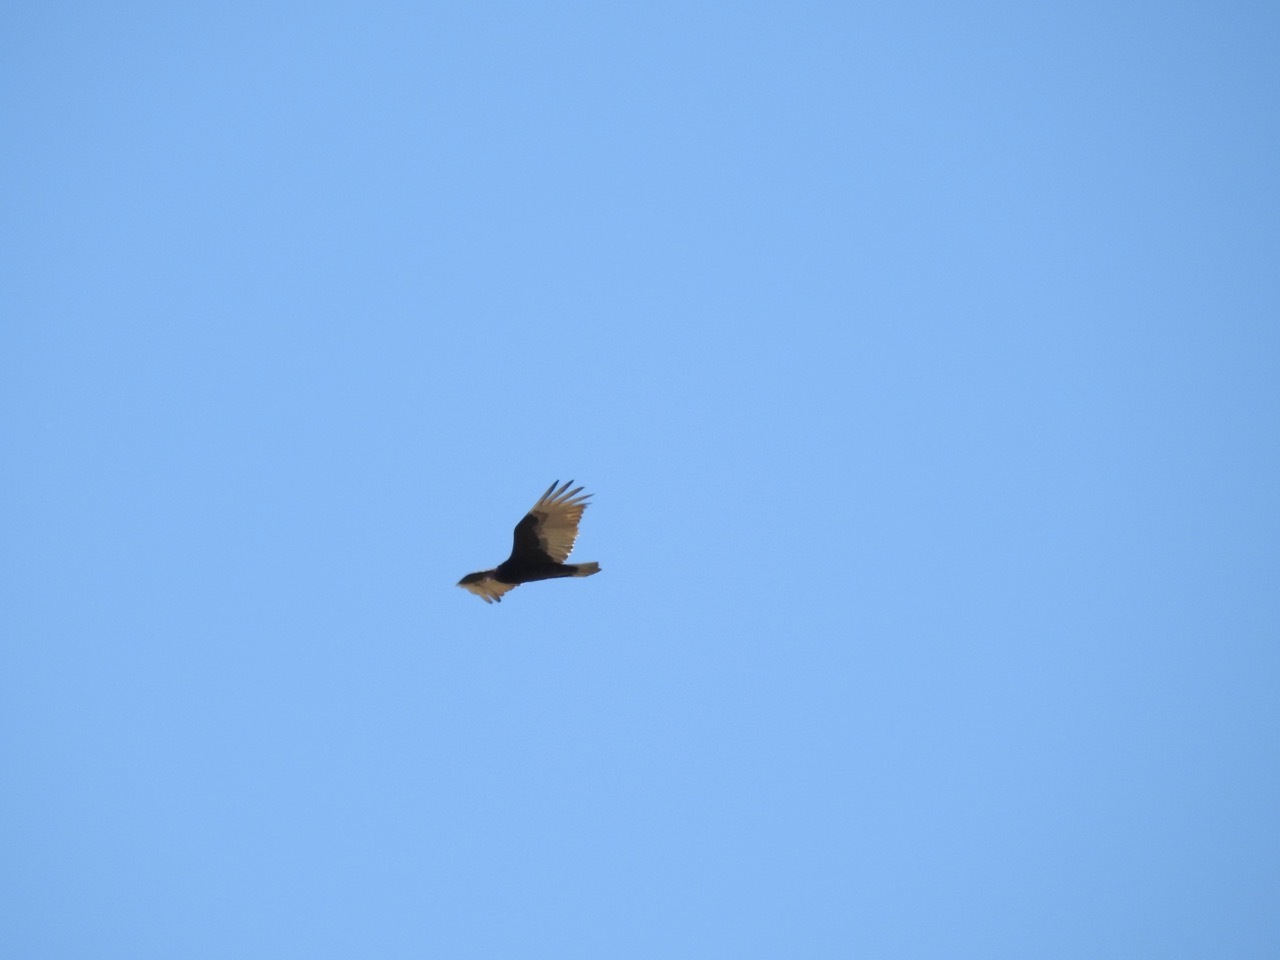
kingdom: Animalia
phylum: Chordata
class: Aves
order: Accipitriformes
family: Cathartidae
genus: Cathartes
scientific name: Cathartes aura
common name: Turkey vulture
